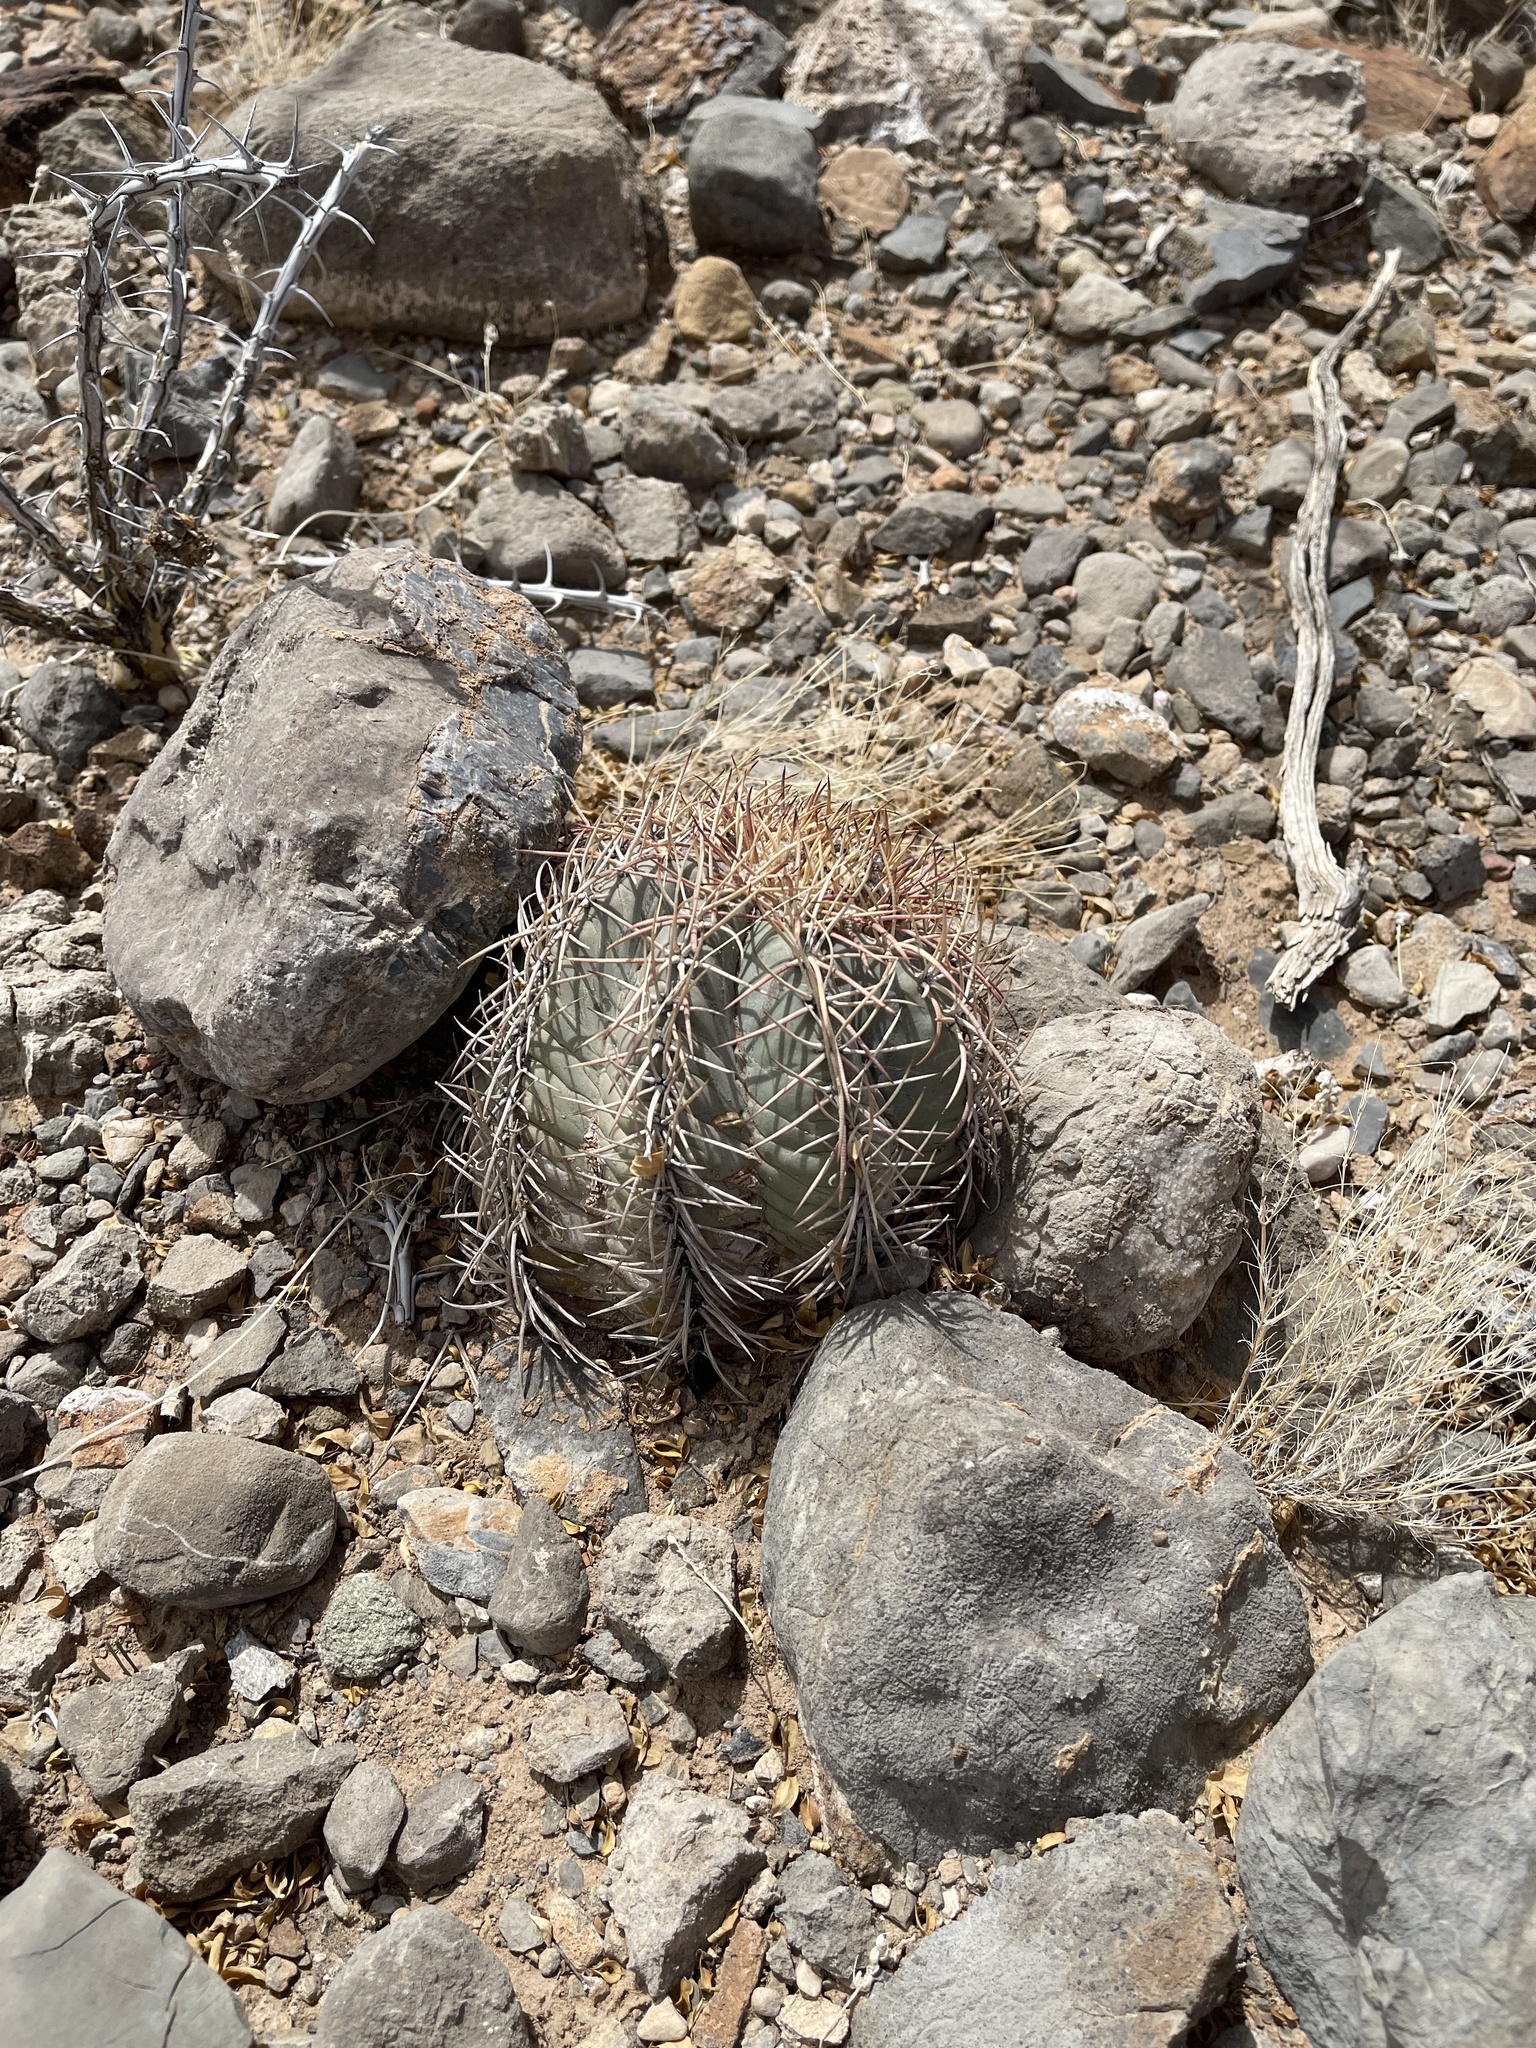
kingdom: Plantae
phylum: Tracheophyta
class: Magnoliopsida
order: Caryophyllales
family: Cactaceae
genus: Echinocactus
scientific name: Echinocactus horizonthalonius
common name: Devilshead
